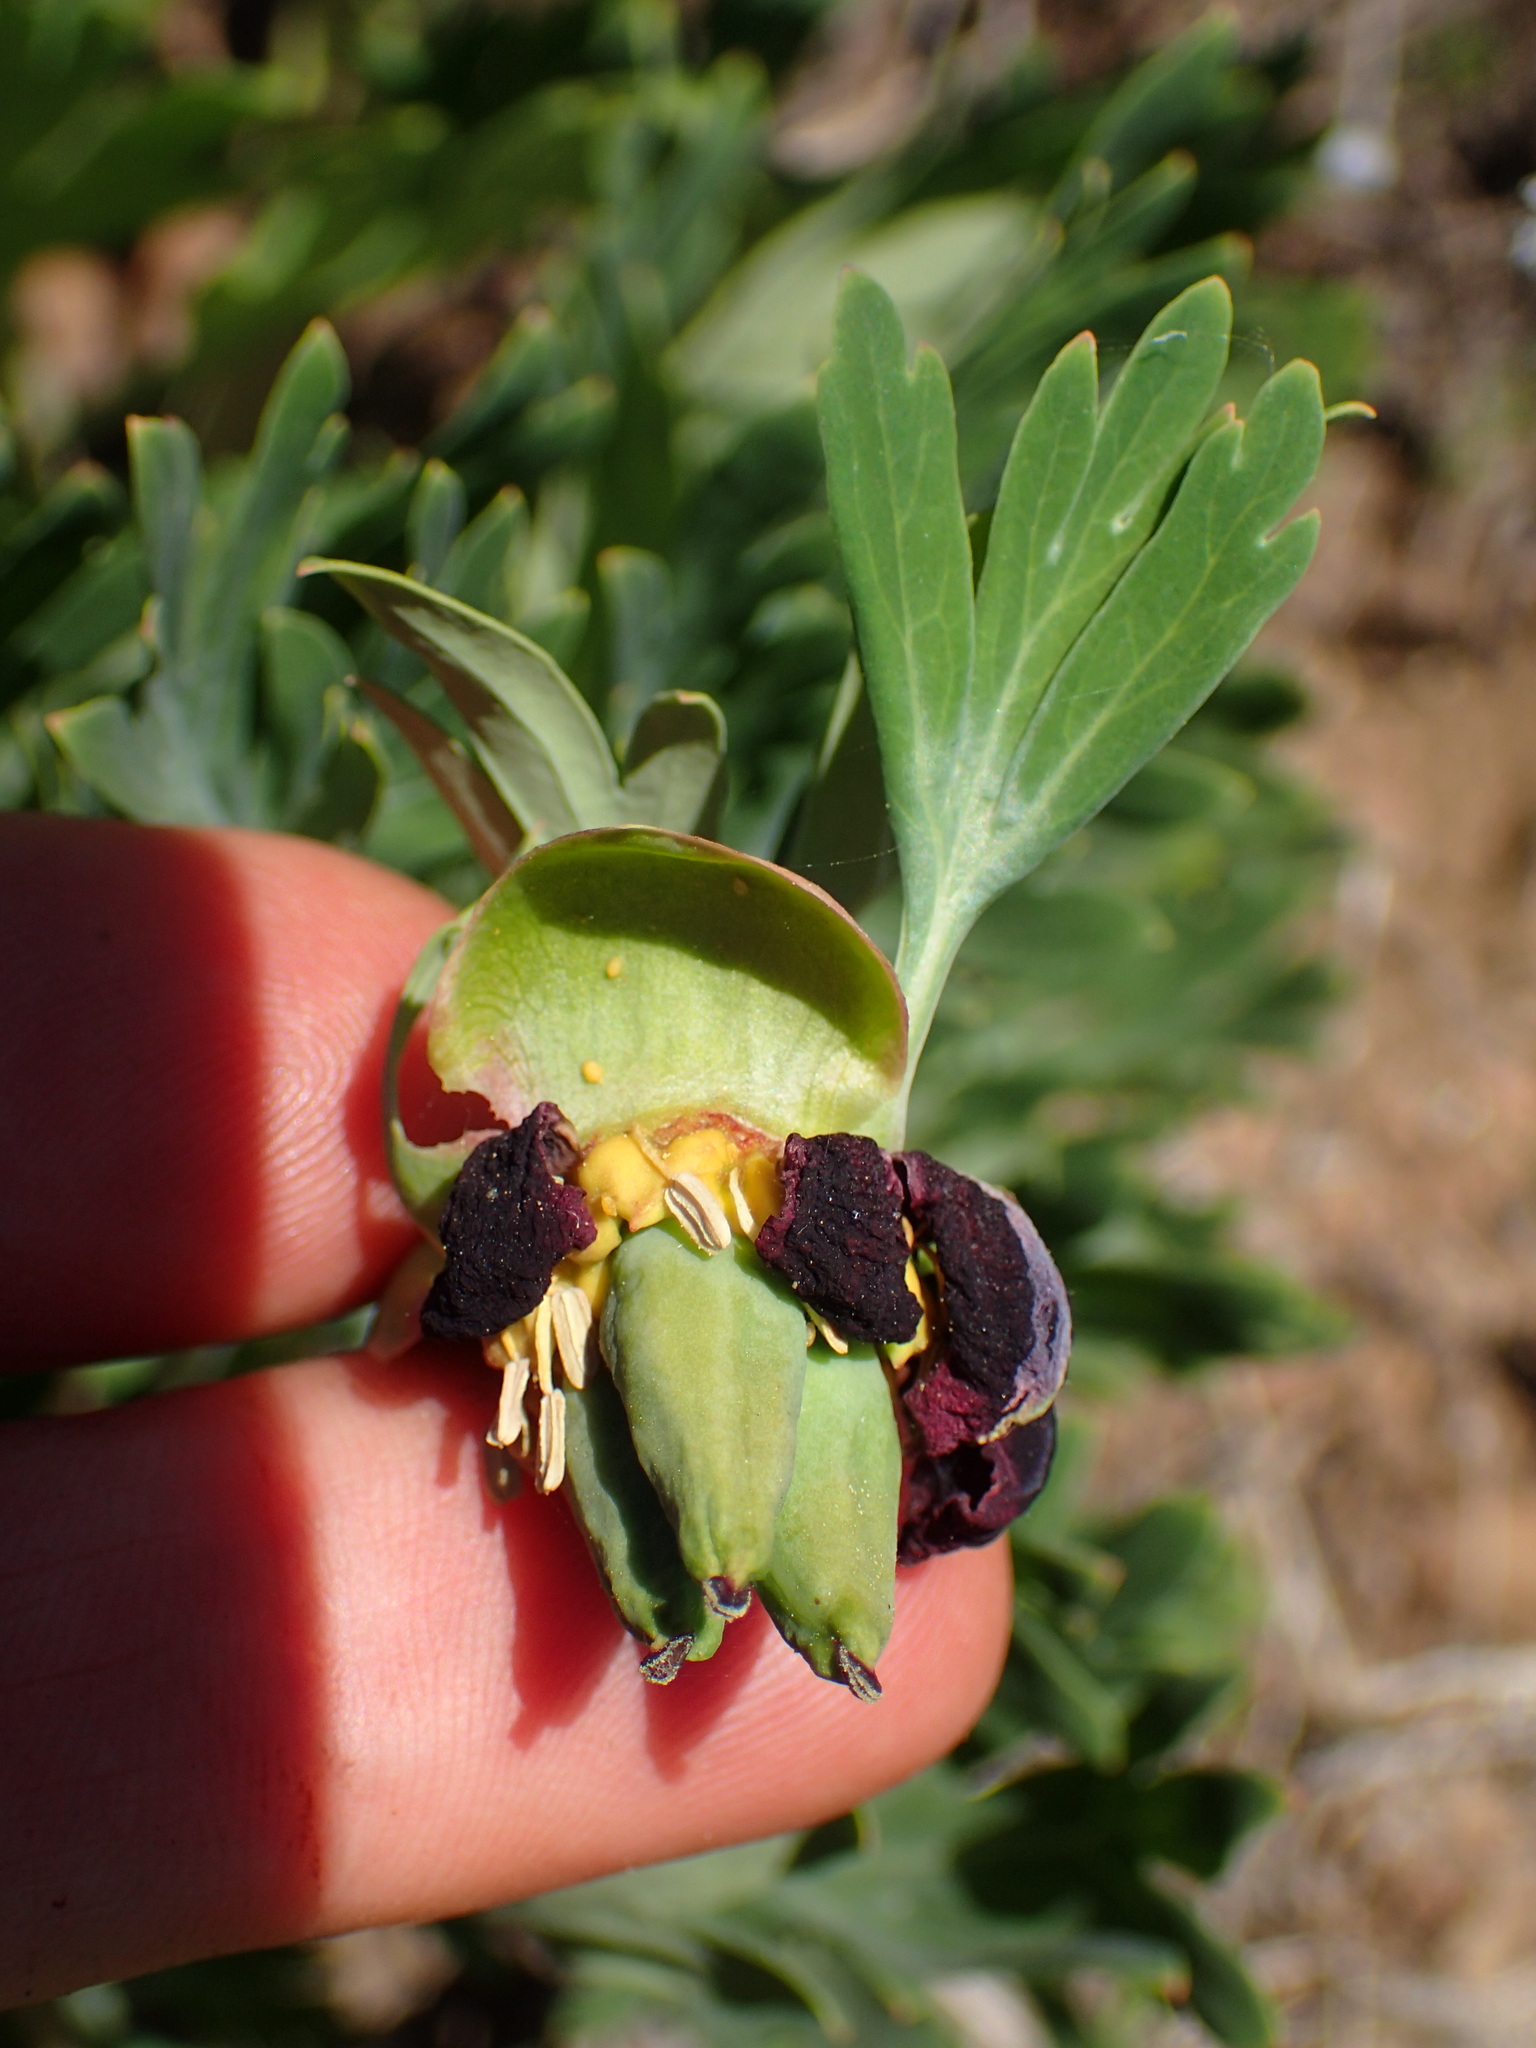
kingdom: Plantae
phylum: Tracheophyta
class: Magnoliopsida
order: Saxifragales
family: Paeoniaceae
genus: Paeonia
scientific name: Paeonia californica
